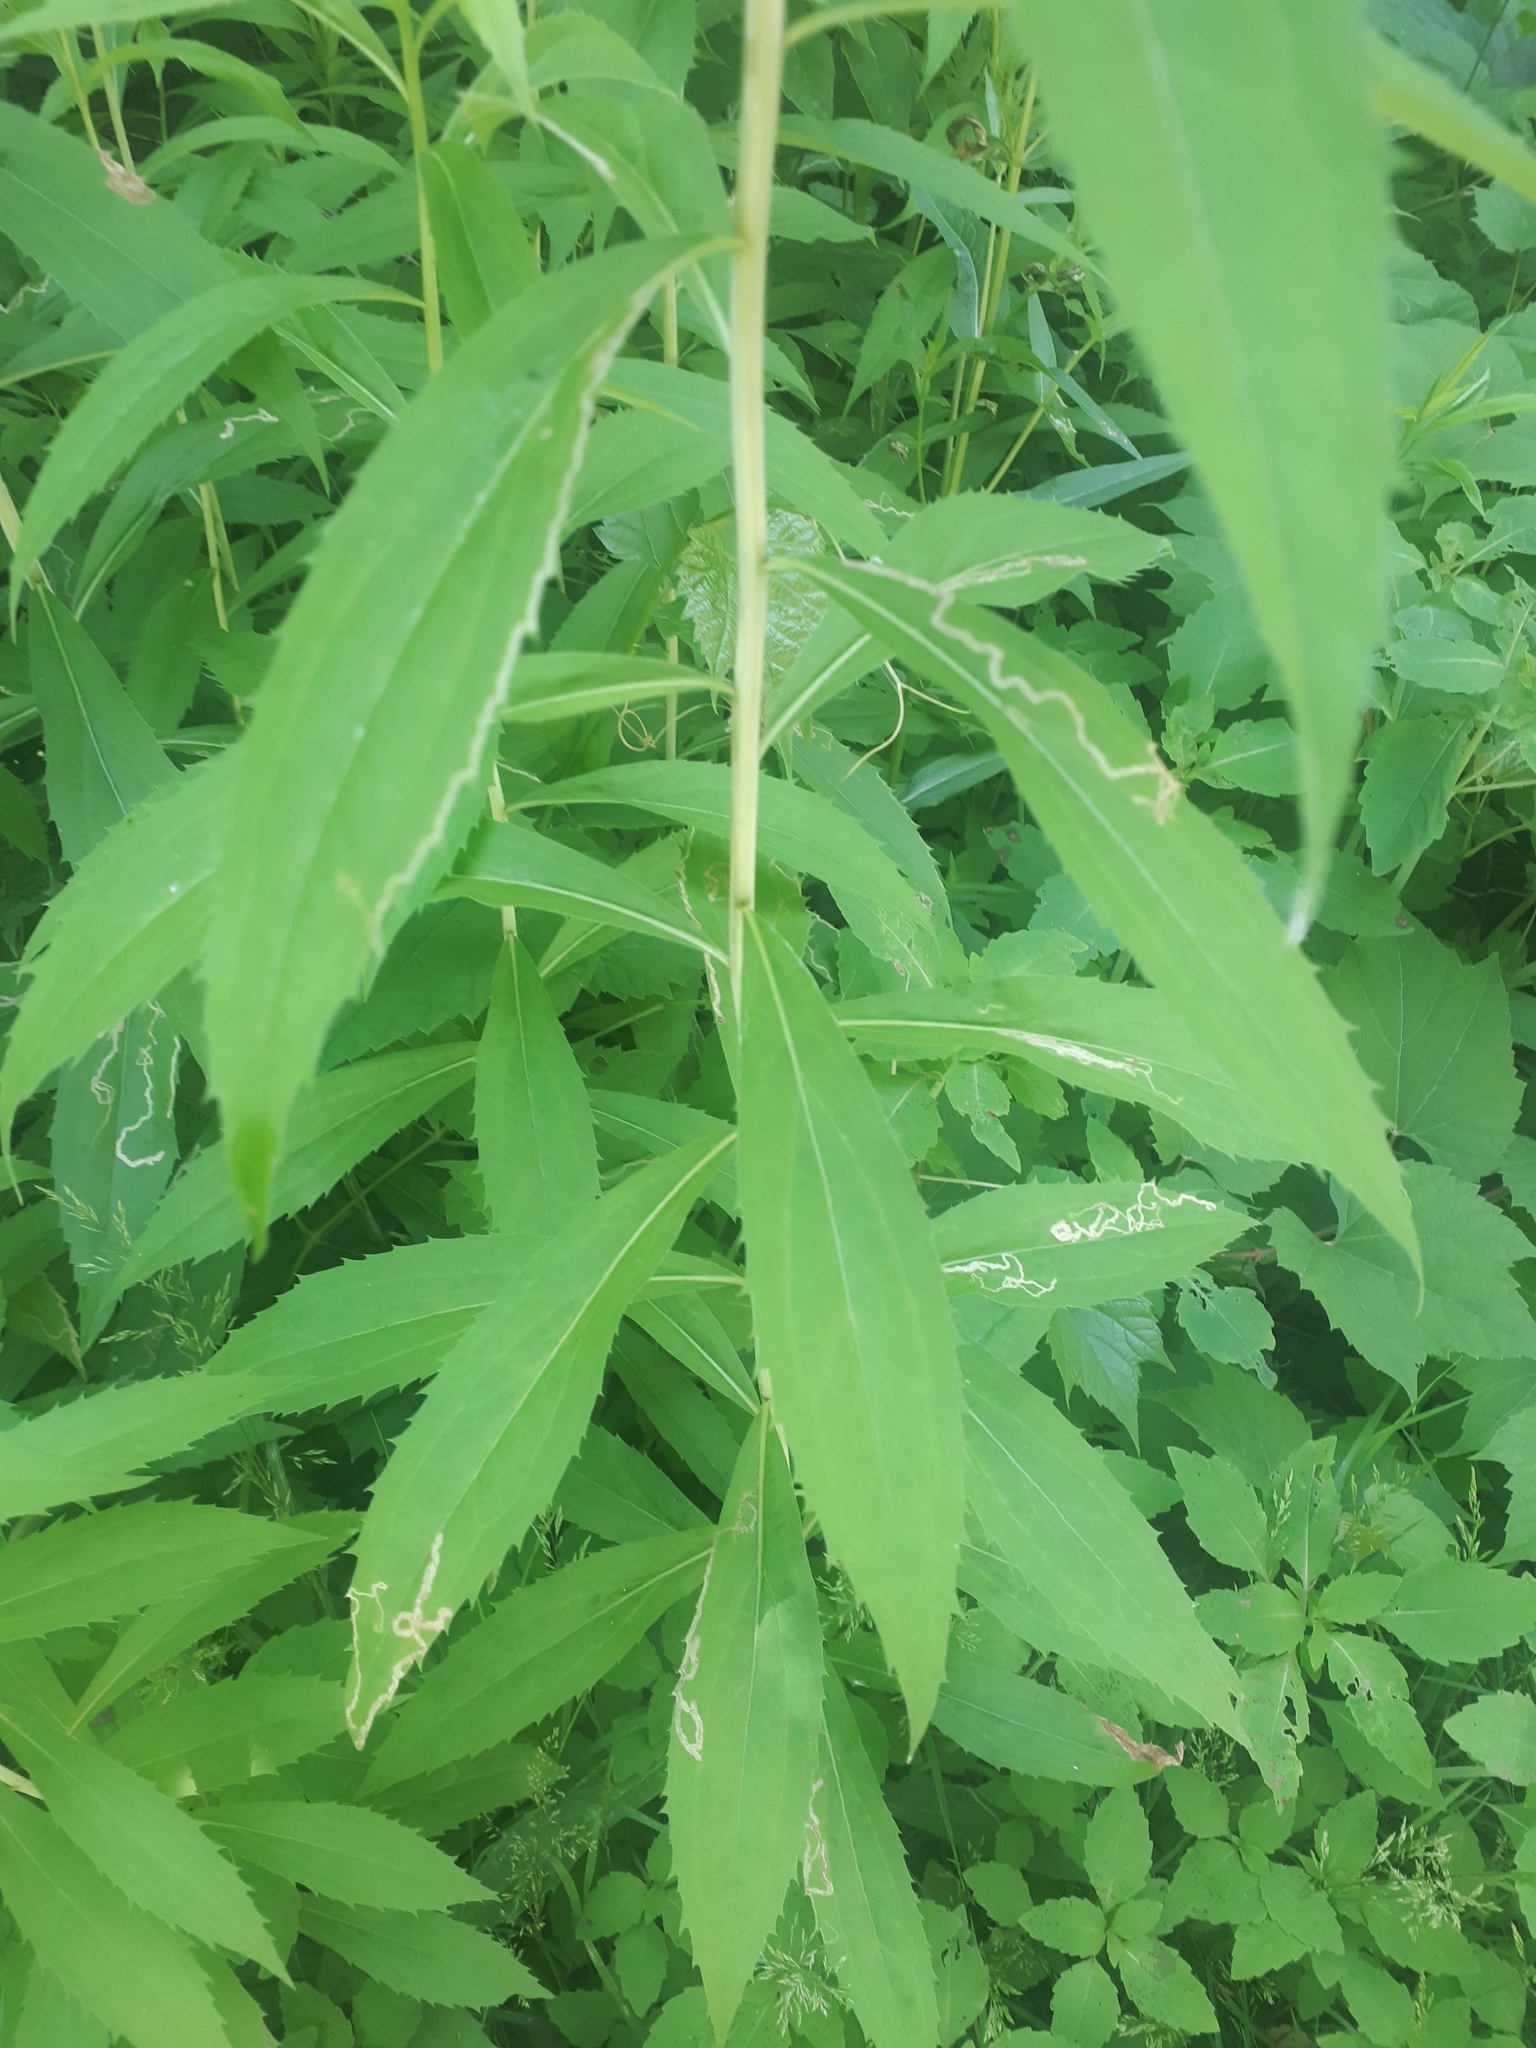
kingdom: Plantae
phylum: Tracheophyta
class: Magnoliopsida
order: Asterales
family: Asteraceae
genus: Solidago
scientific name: Solidago gigantea
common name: Giant goldenrod
